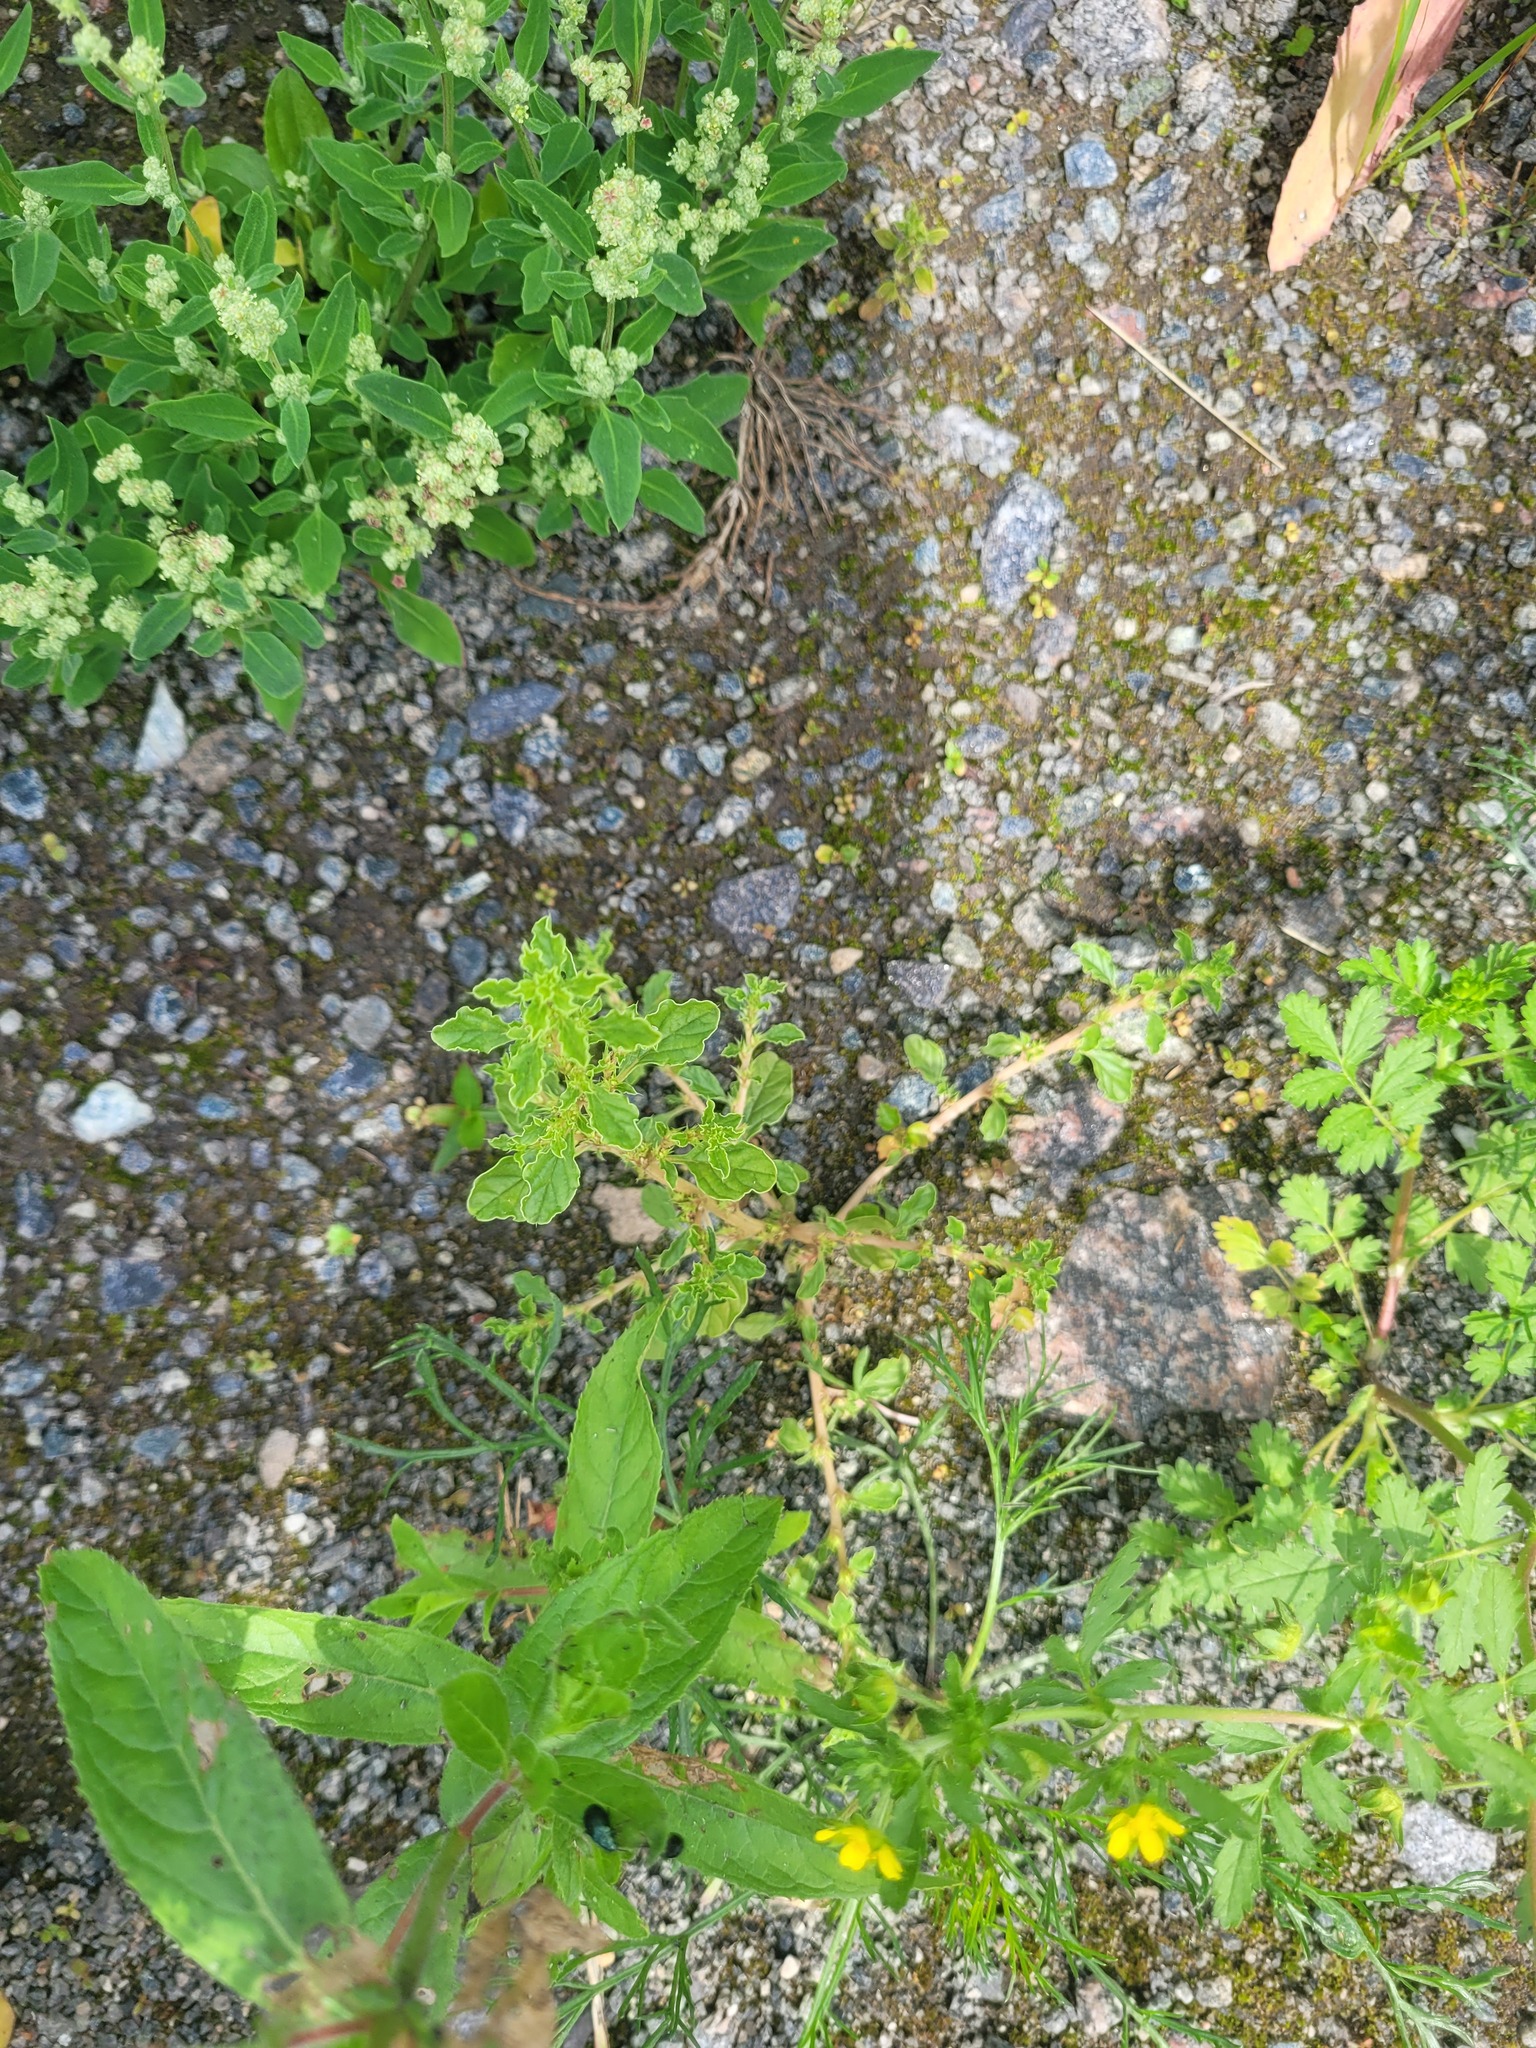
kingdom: Plantae
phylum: Tracheophyta
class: Magnoliopsida
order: Caryophyllales
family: Amaranthaceae
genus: Amaranthus
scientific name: Amaranthus albus
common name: White pigweed
